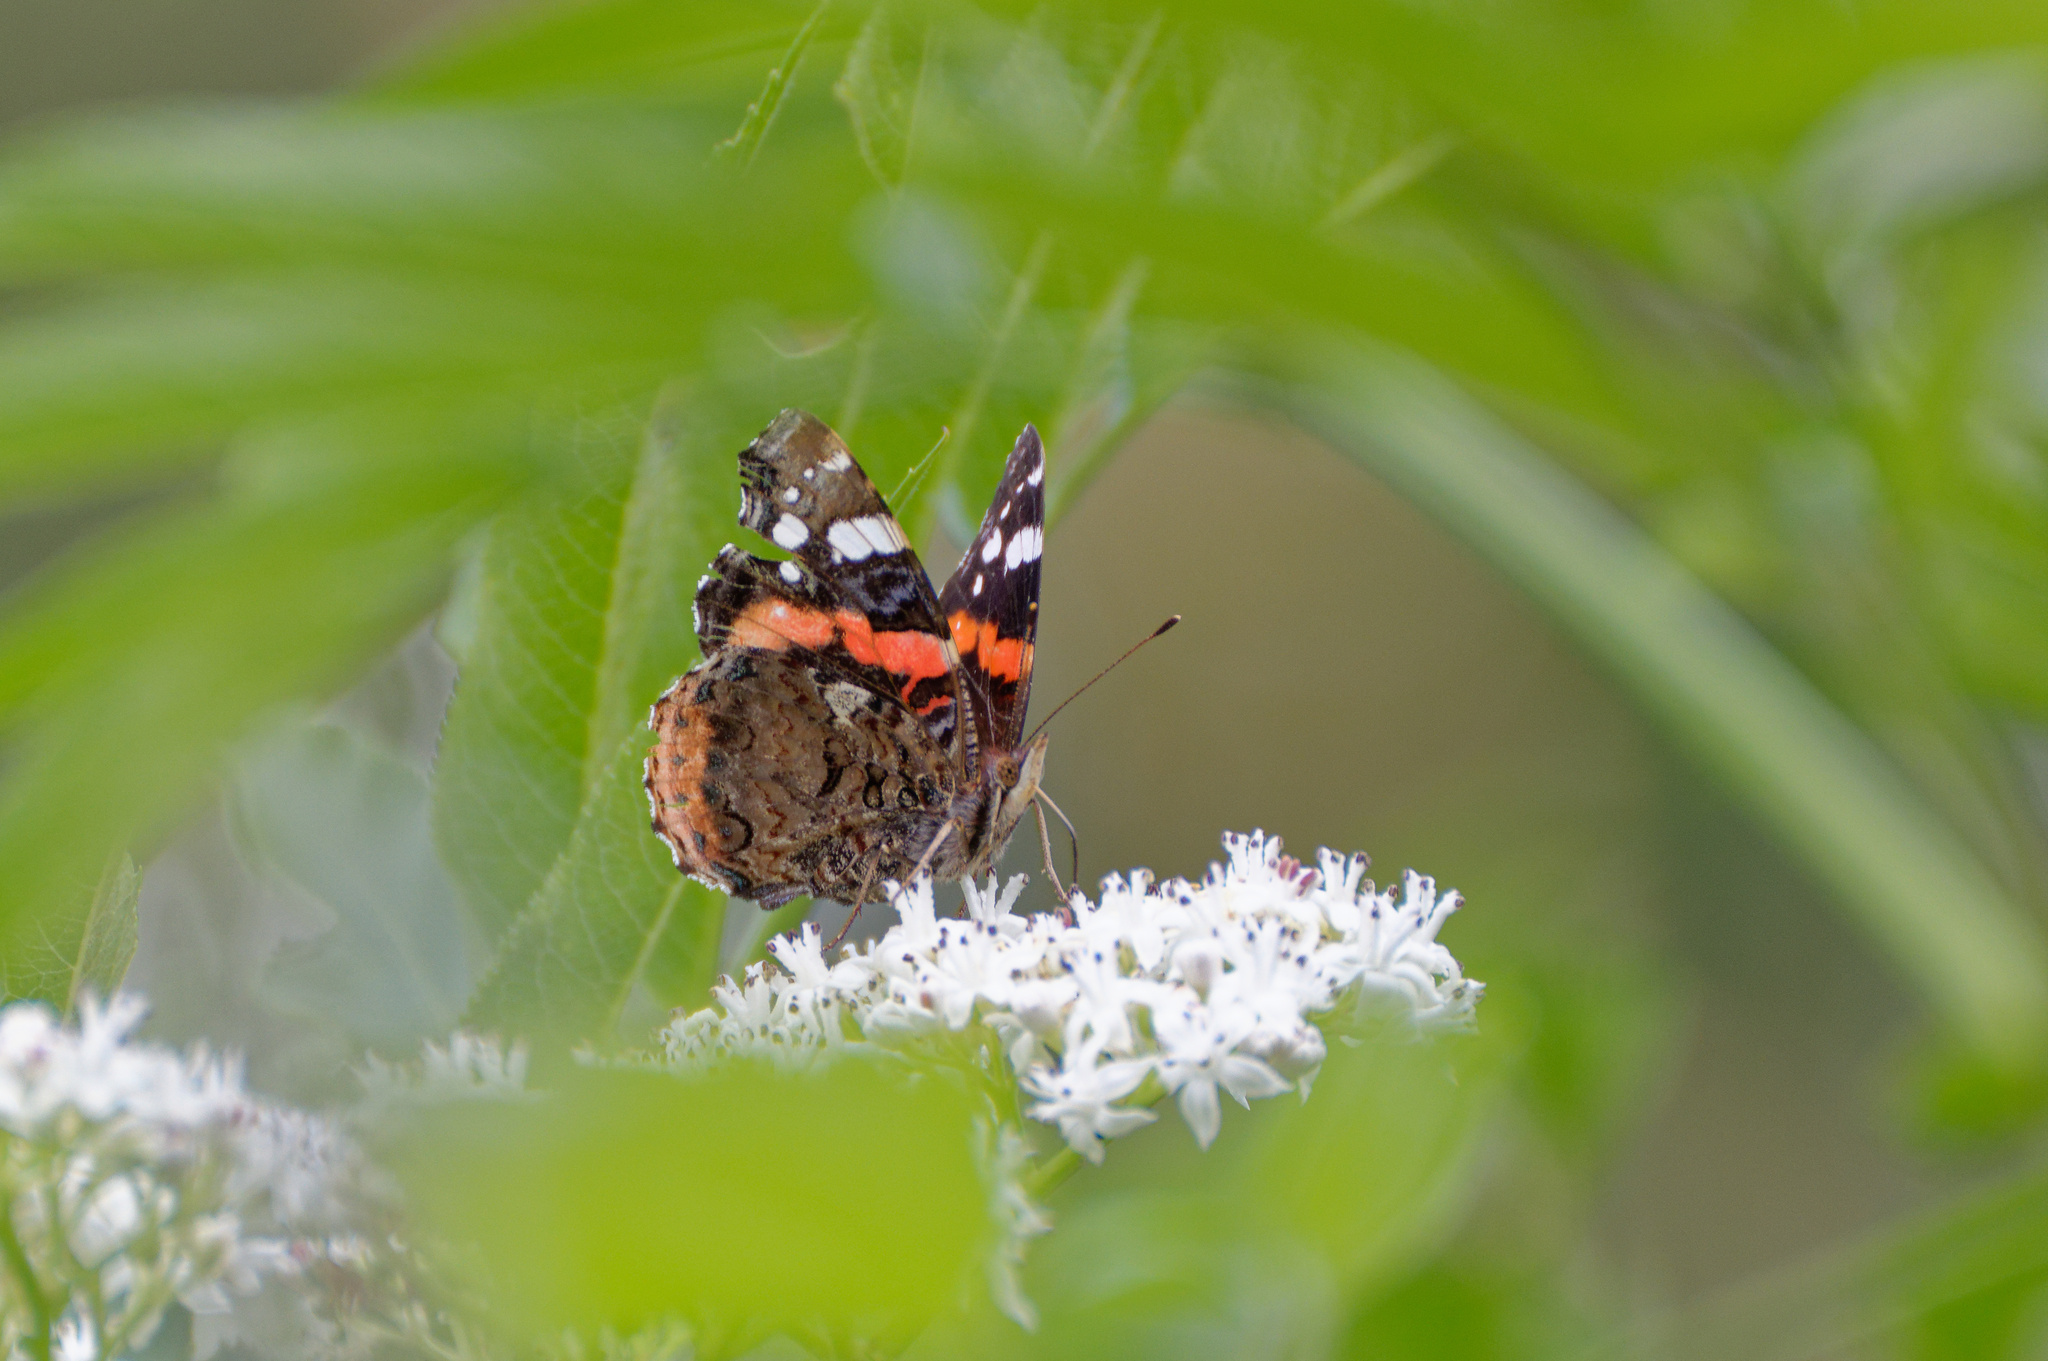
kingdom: Animalia
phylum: Arthropoda
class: Insecta
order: Lepidoptera
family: Nymphalidae
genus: Vanessa
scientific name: Vanessa atalanta
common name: Red admiral
